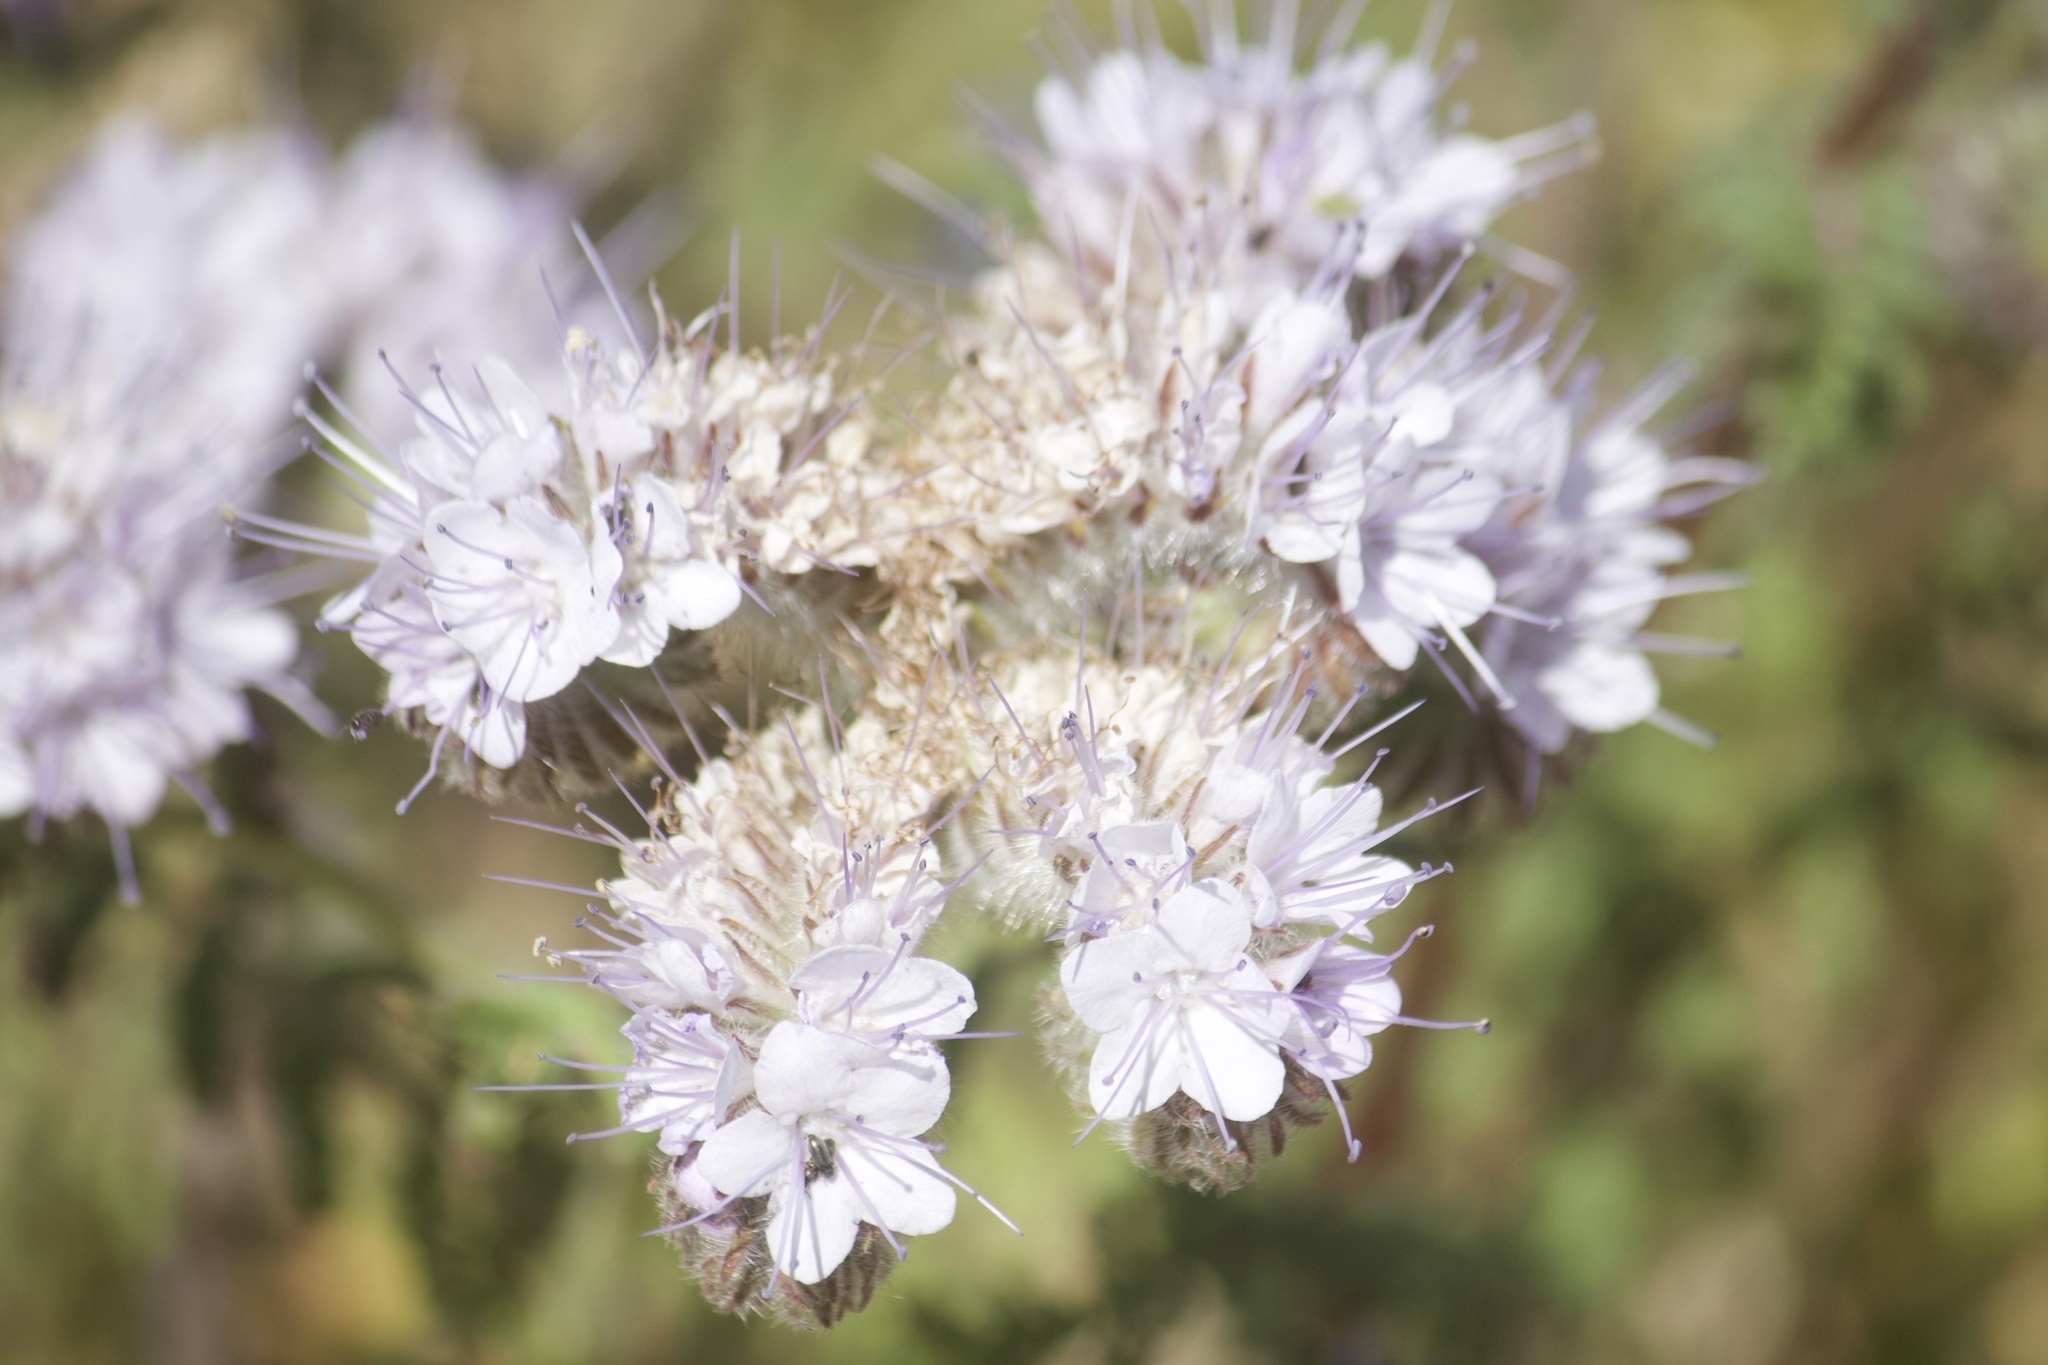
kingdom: Plantae
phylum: Tracheophyta
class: Magnoliopsida
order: Boraginales
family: Hydrophyllaceae
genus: Phacelia
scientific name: Phacelia tanacetifolia
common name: Phacelia
